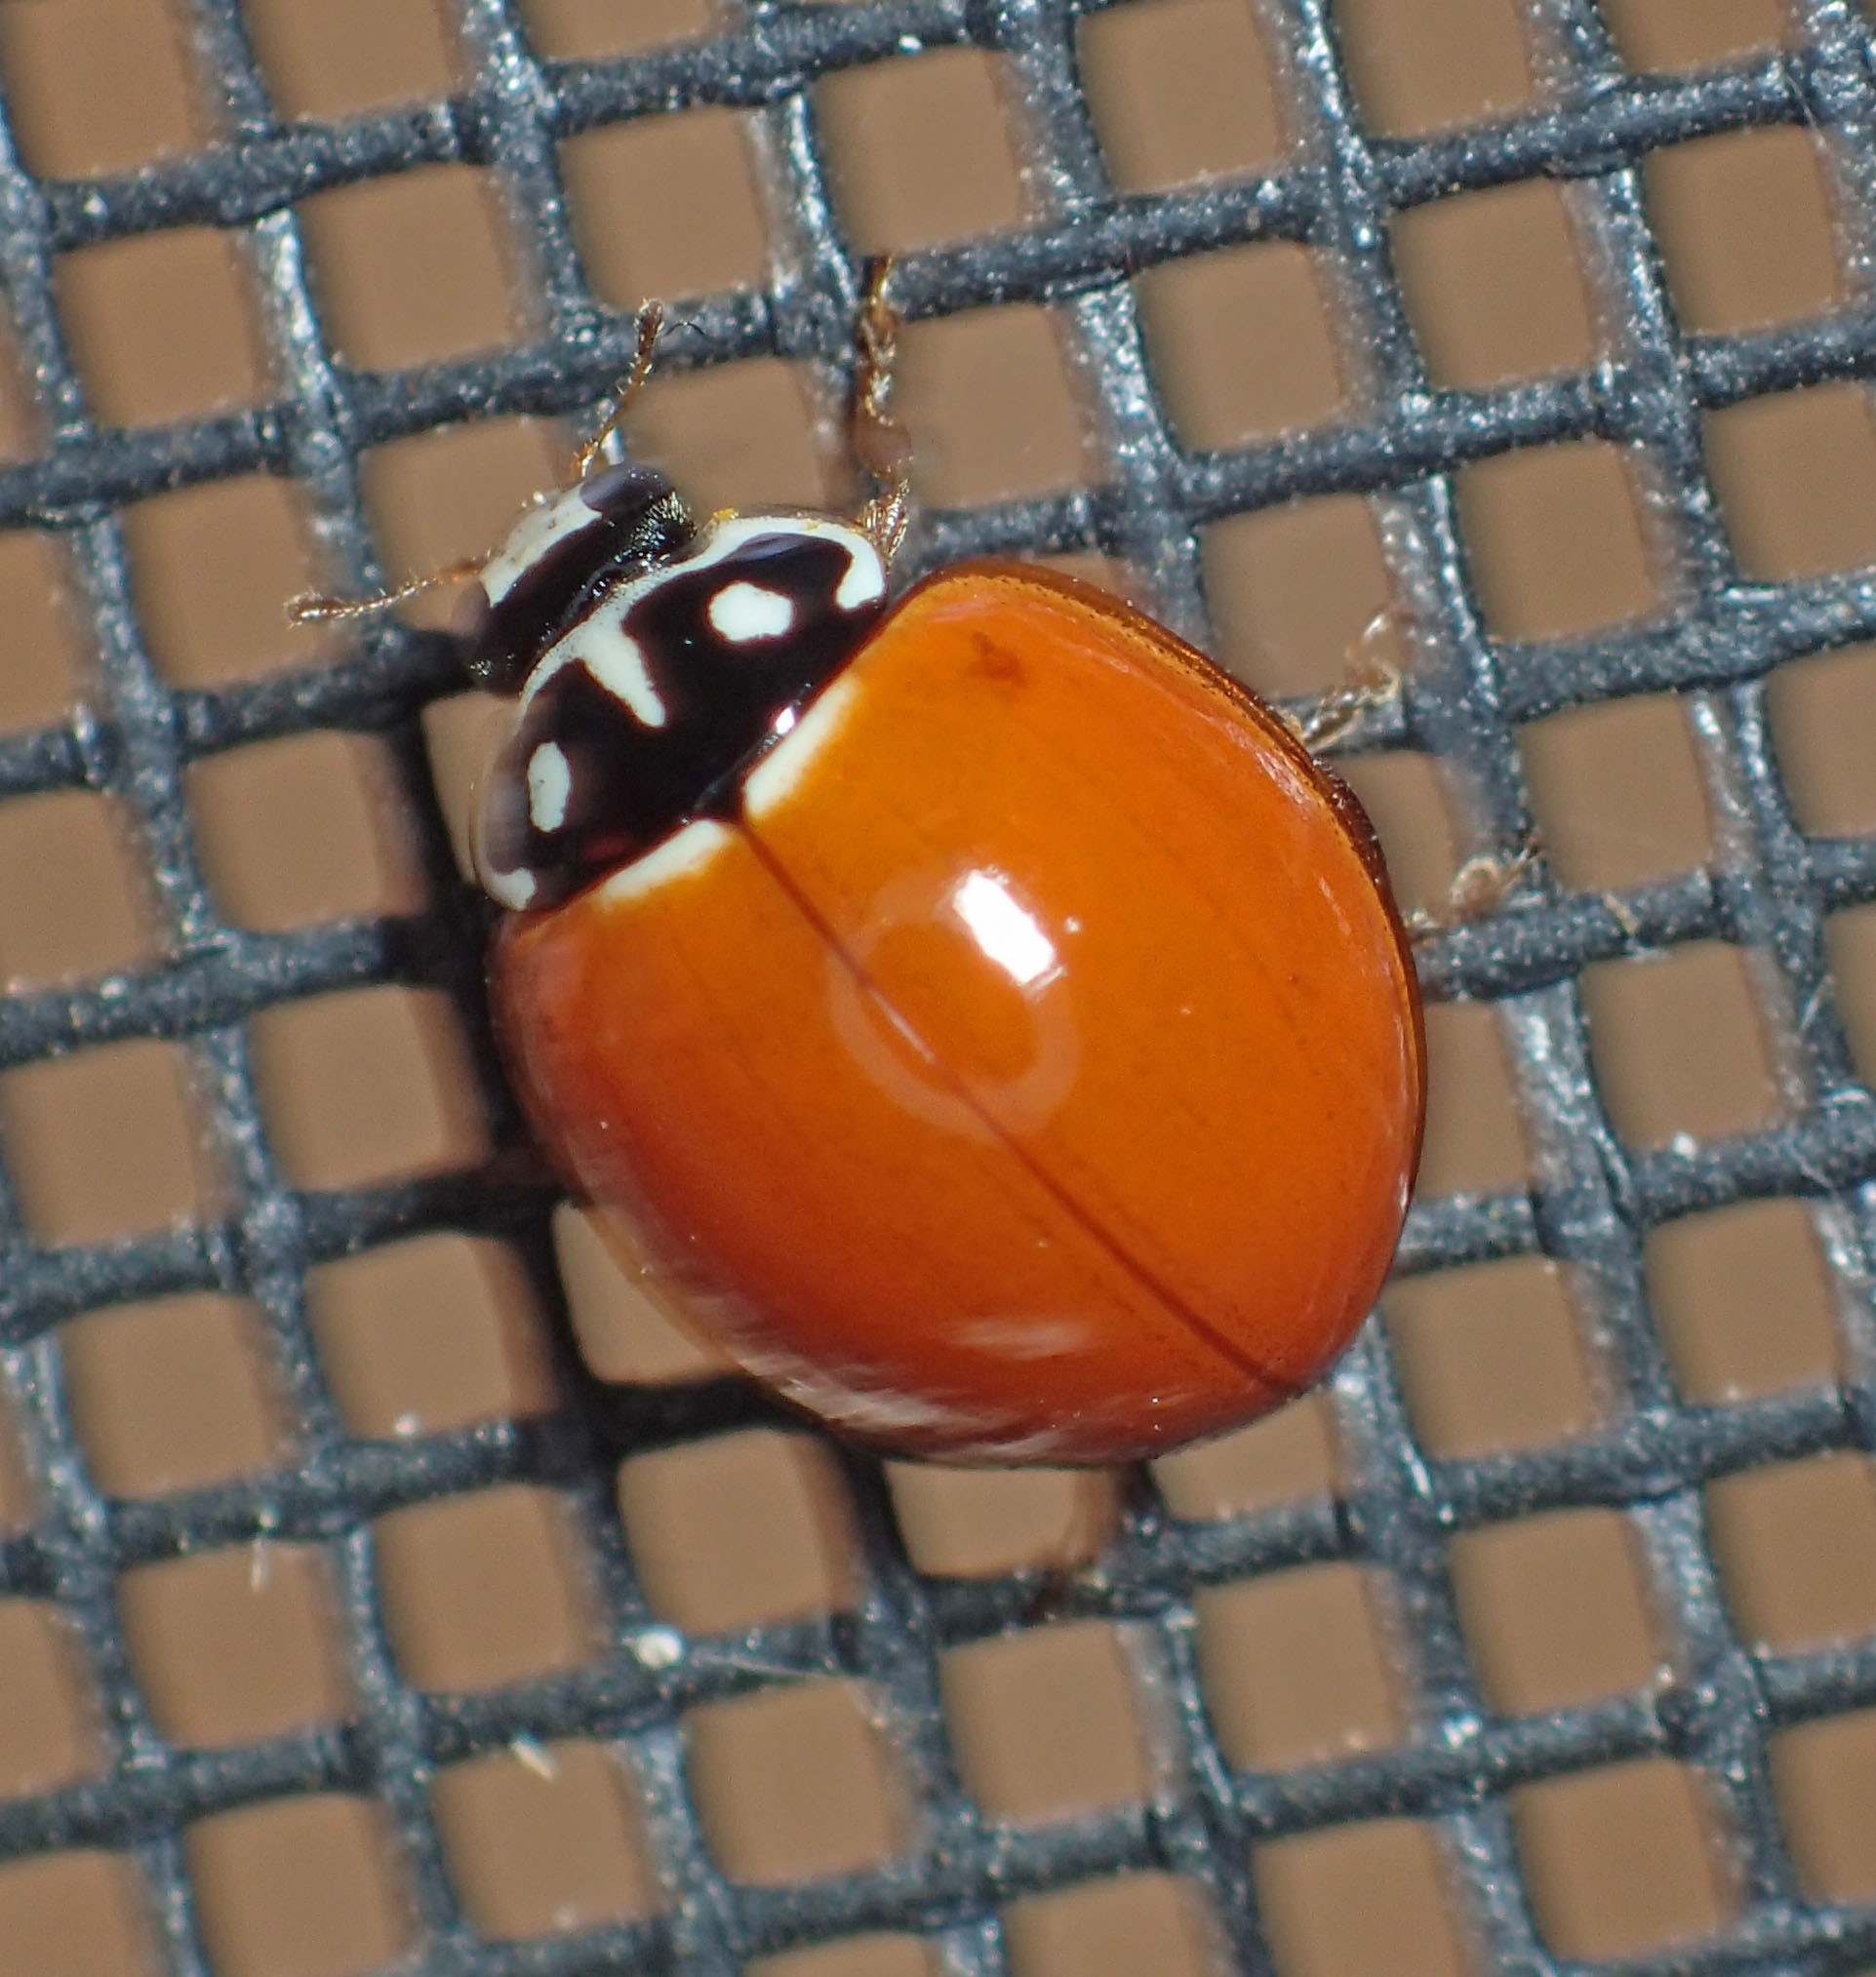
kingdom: Animalia
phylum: Arthropoda
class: Insecta
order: Coleoptera
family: Coccinellidae
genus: Cycloneda
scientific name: Cycloneda sanguinea
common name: Ladybird beetle
